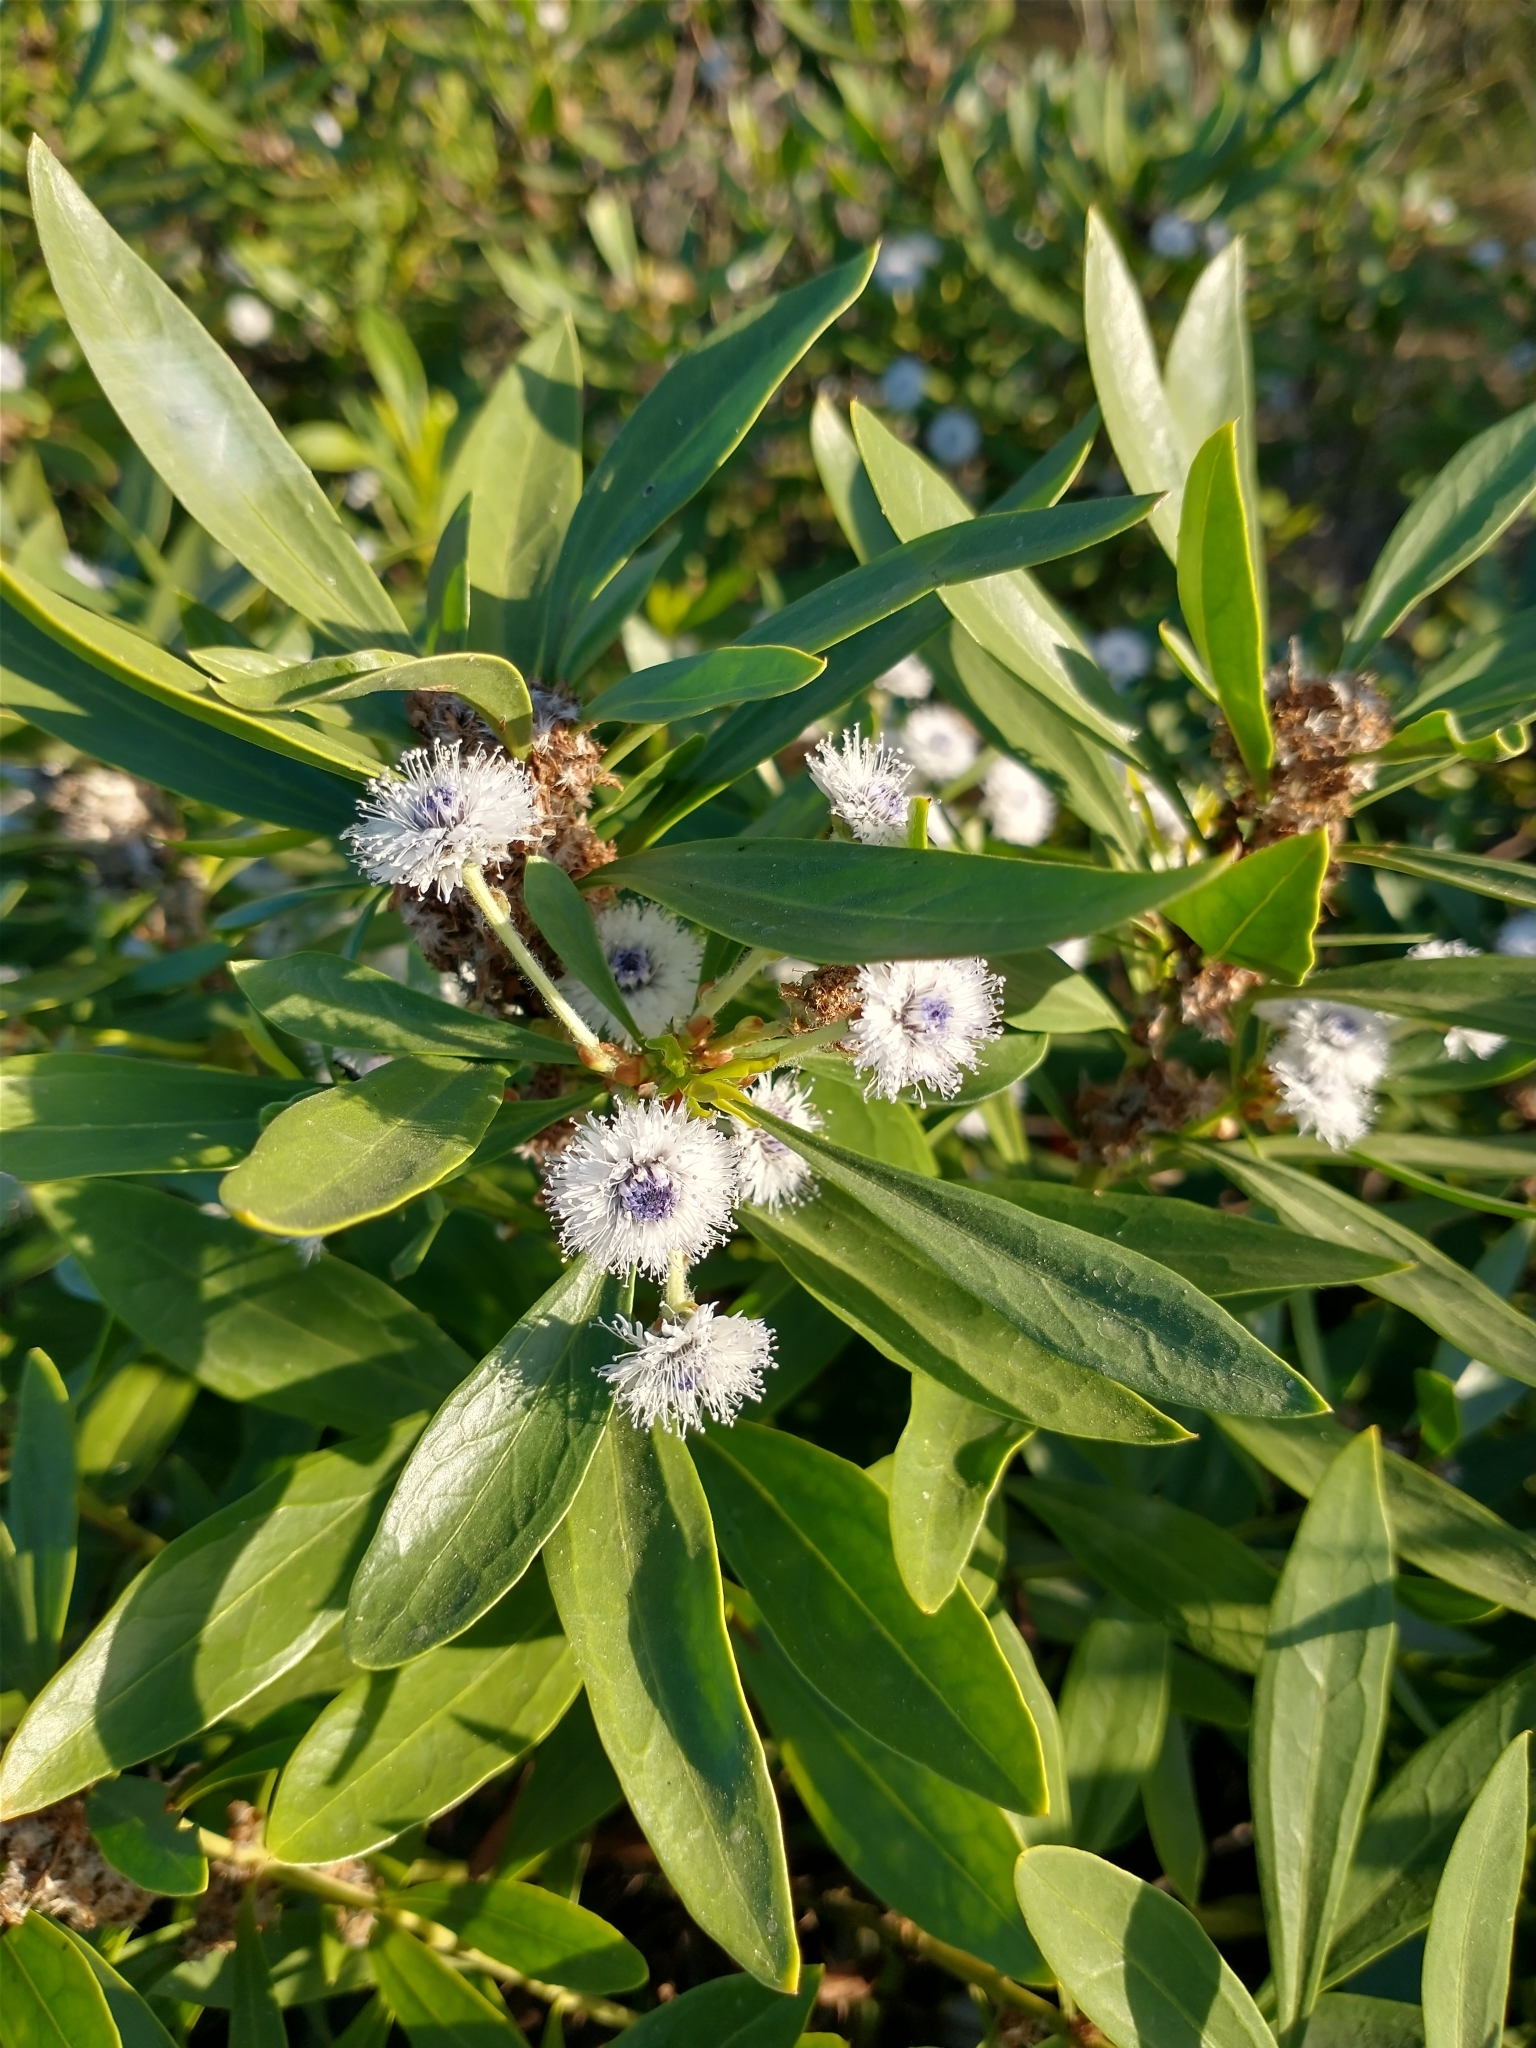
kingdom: Plantae
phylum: Tracheophyta
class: Magnoliopsida
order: Lamiales
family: Plantaginaceae
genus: Globularia
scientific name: Globularia salicina
